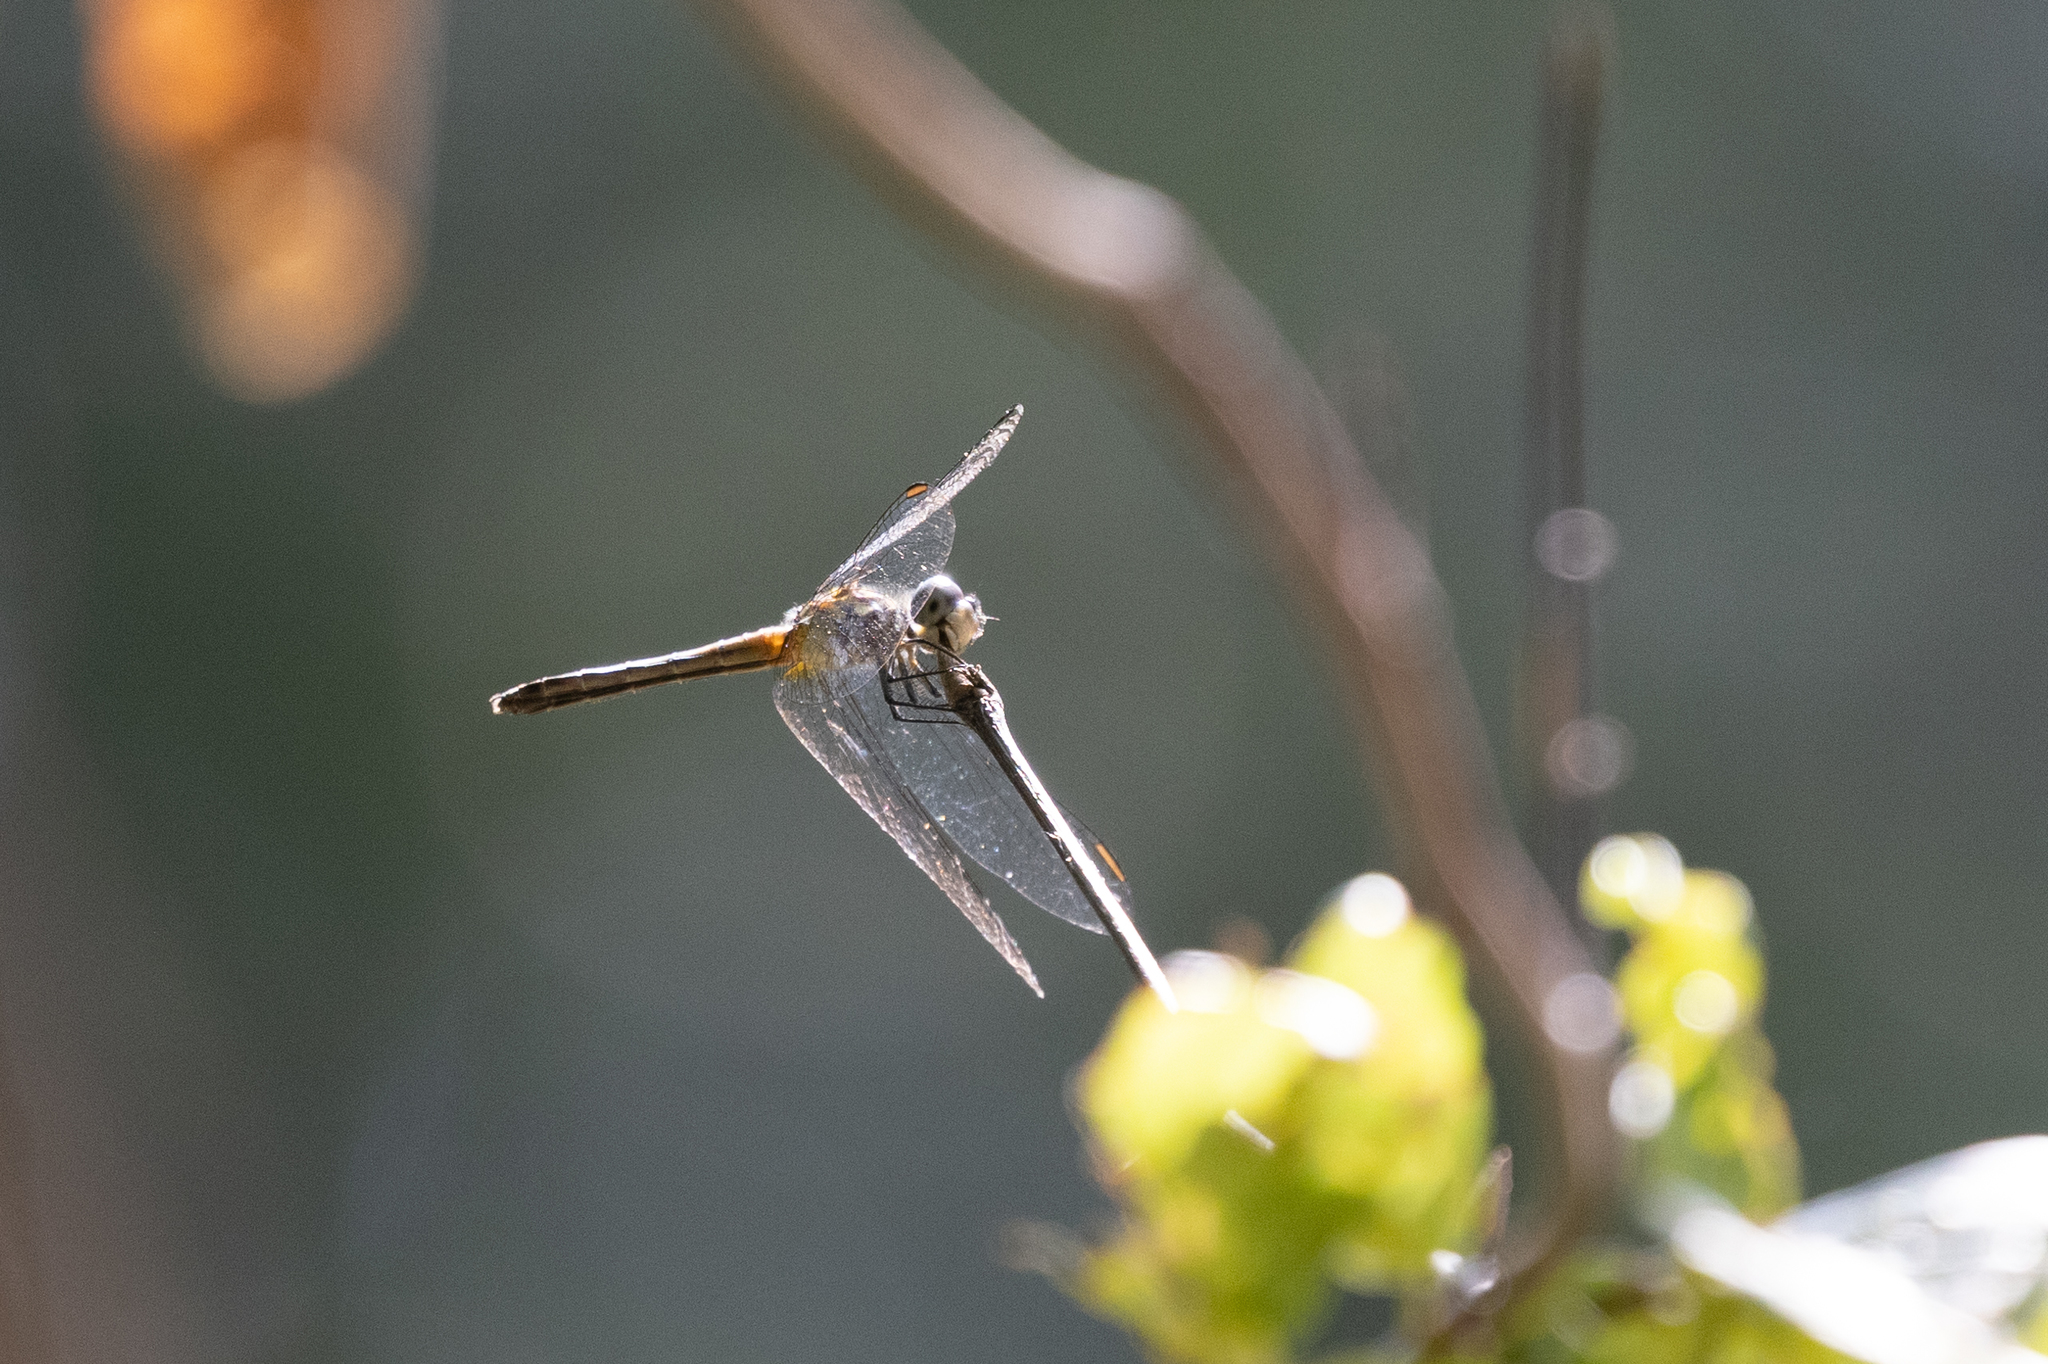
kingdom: Animalia
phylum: Arthropoda
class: Insecta
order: Odonata
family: Libellulidae
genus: Pachydiplax
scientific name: Pachydiplax longipennis
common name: Blue dasher
